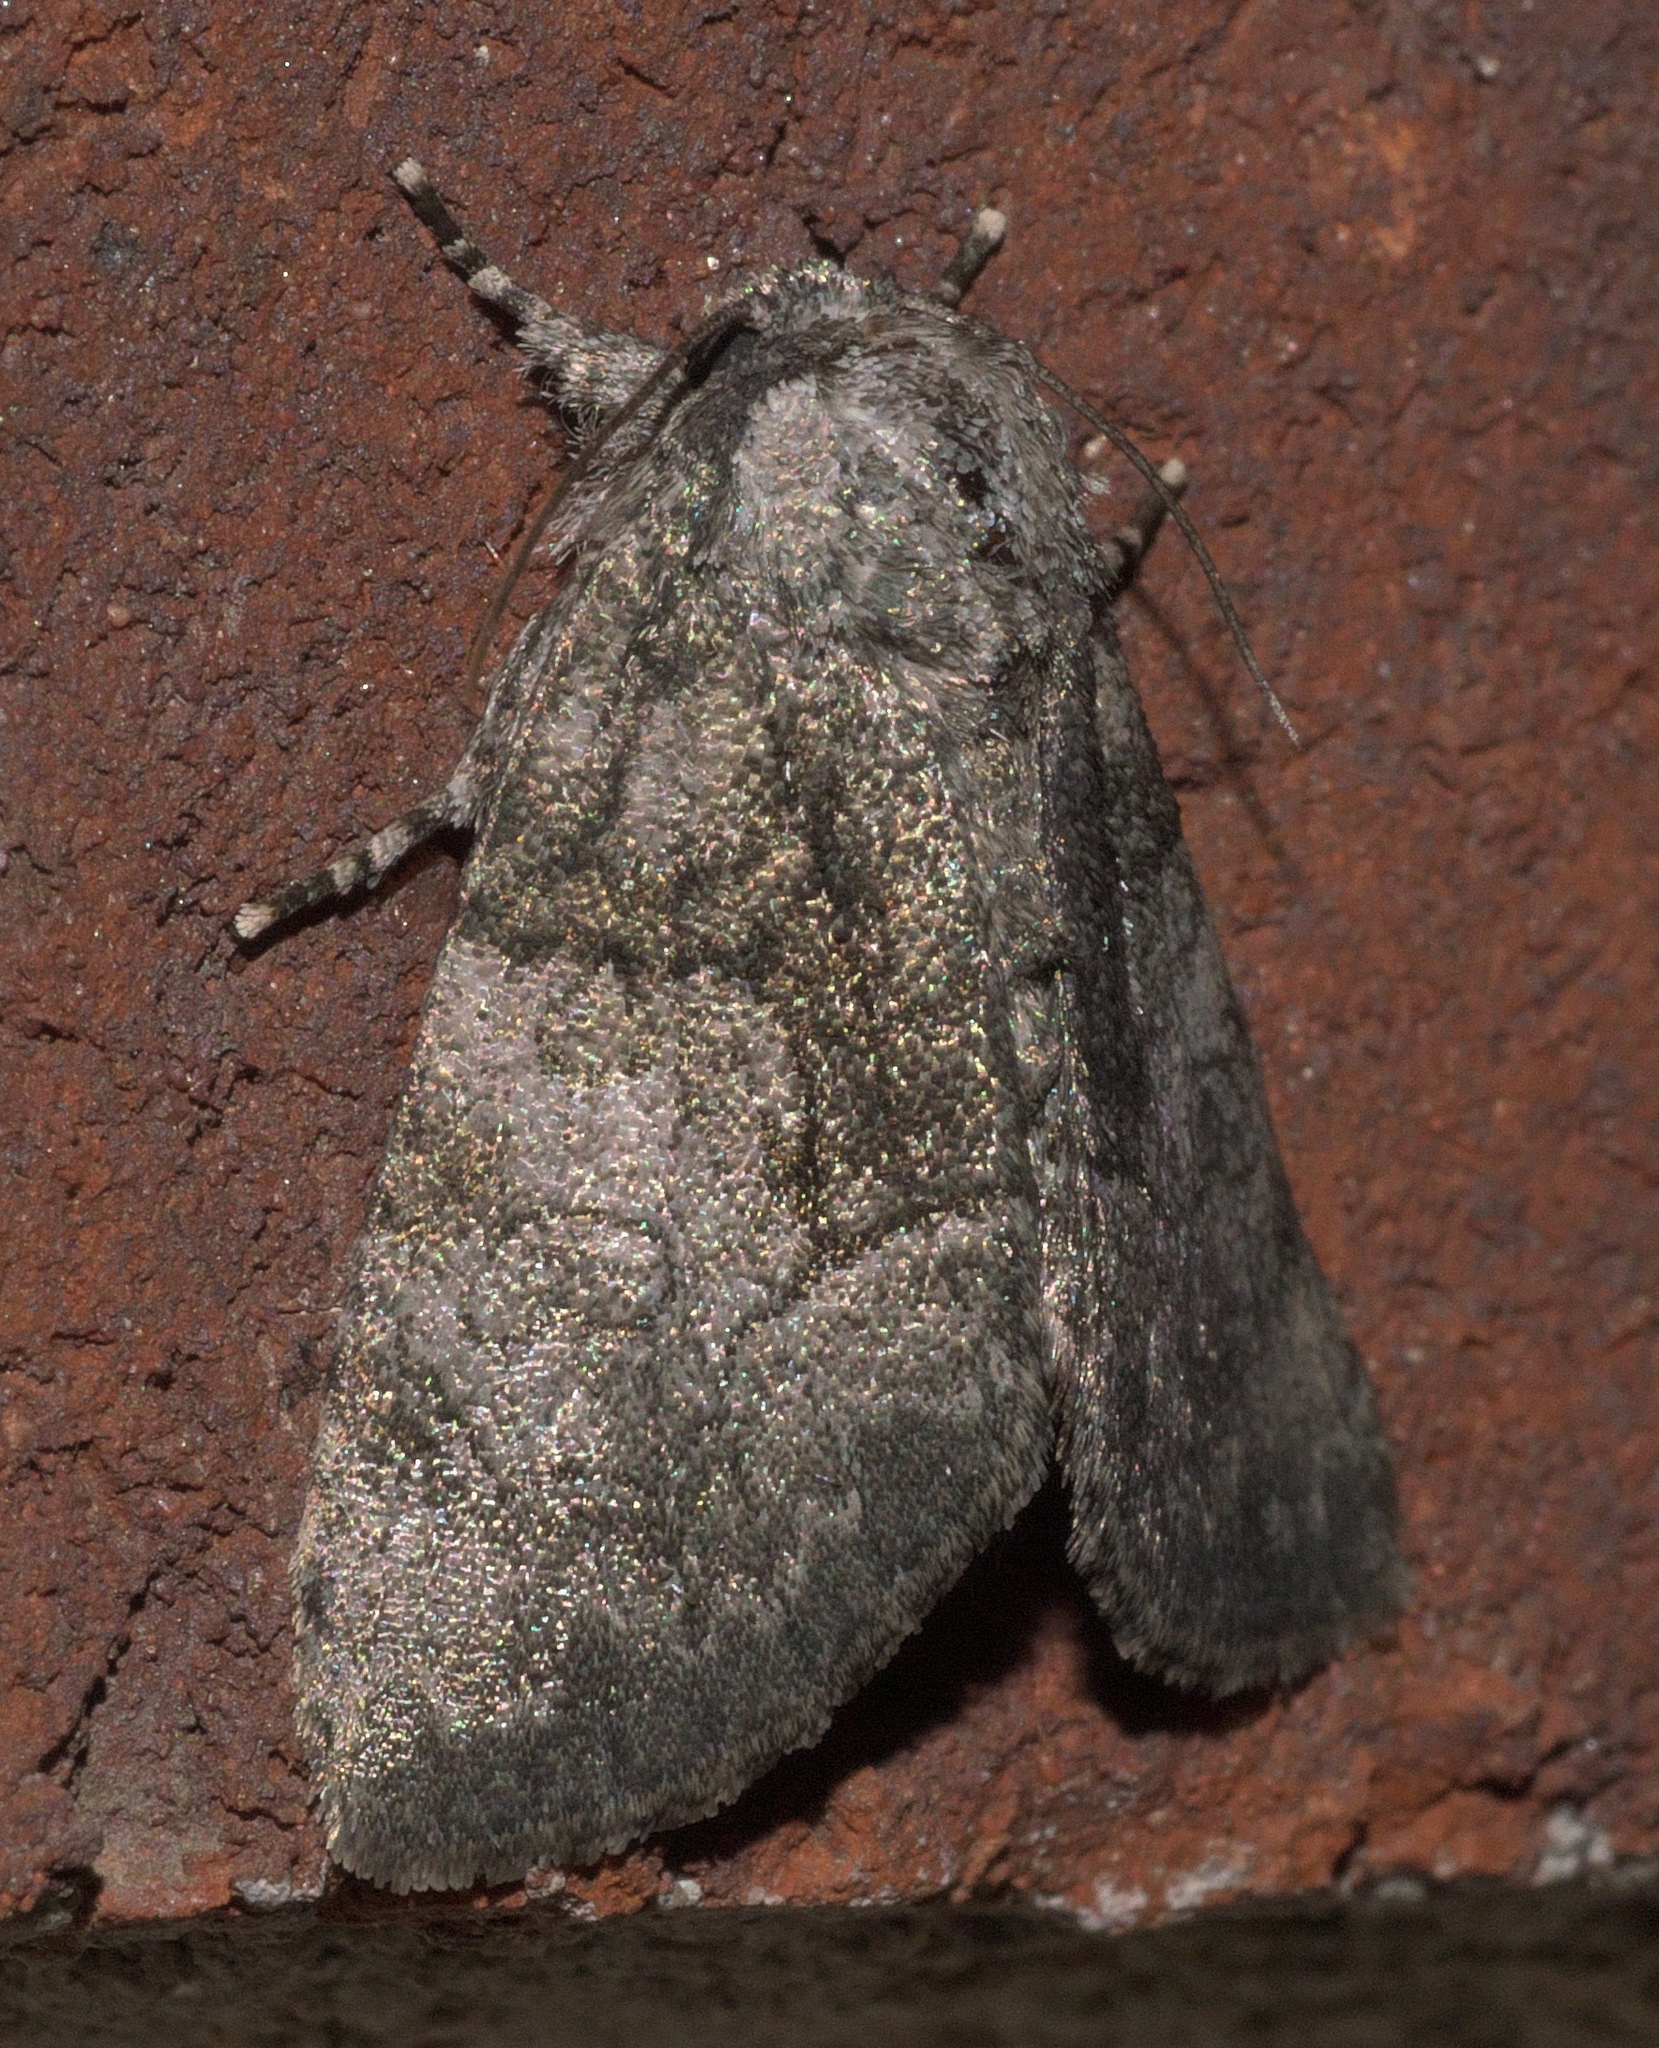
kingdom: Animalia
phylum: Arthropoda
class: Insecta
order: Lepidoptera
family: Noctuidae
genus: Raphia
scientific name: Raphia frater
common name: Brother
